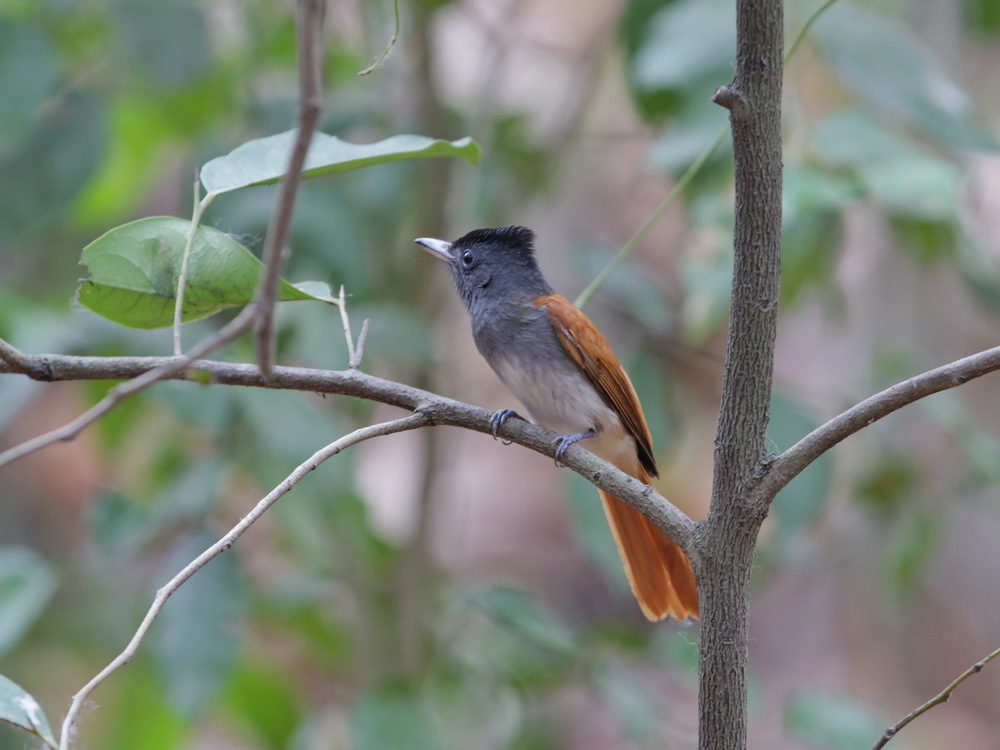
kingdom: Animalia
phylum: Chordata
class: Aves
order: Passeriformes
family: Monarchidae
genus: Terpsiphone
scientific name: Terpsiphone paradisi
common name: Indian paradise flycatcher
